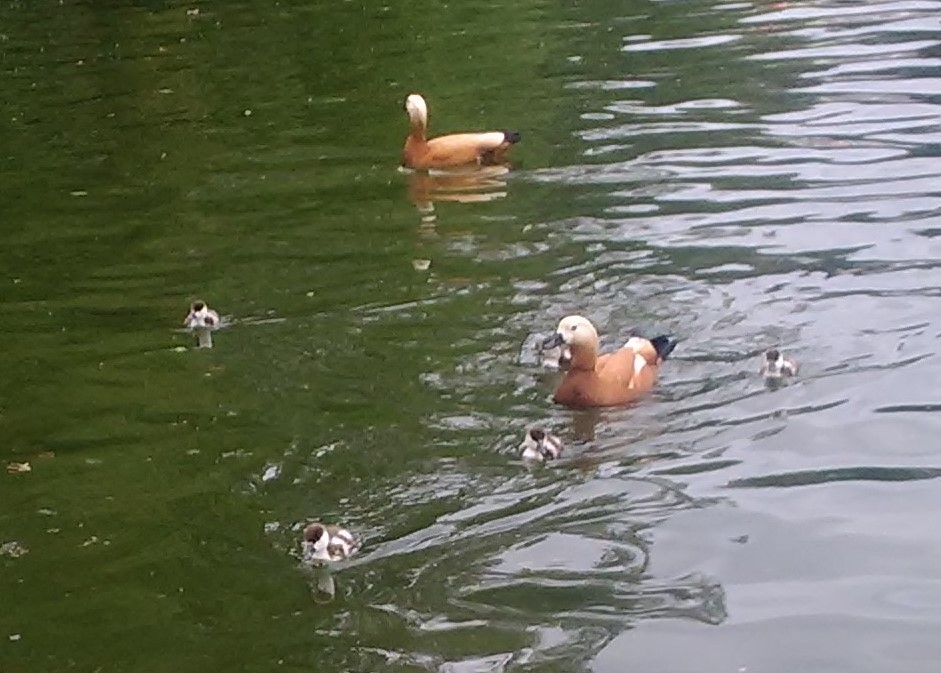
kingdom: Animalia
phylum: Chordata
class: Aves
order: Anseriformes
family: Anatidae
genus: Tadorna
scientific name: Tadorna ferruginea
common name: Ruddy shelduck
